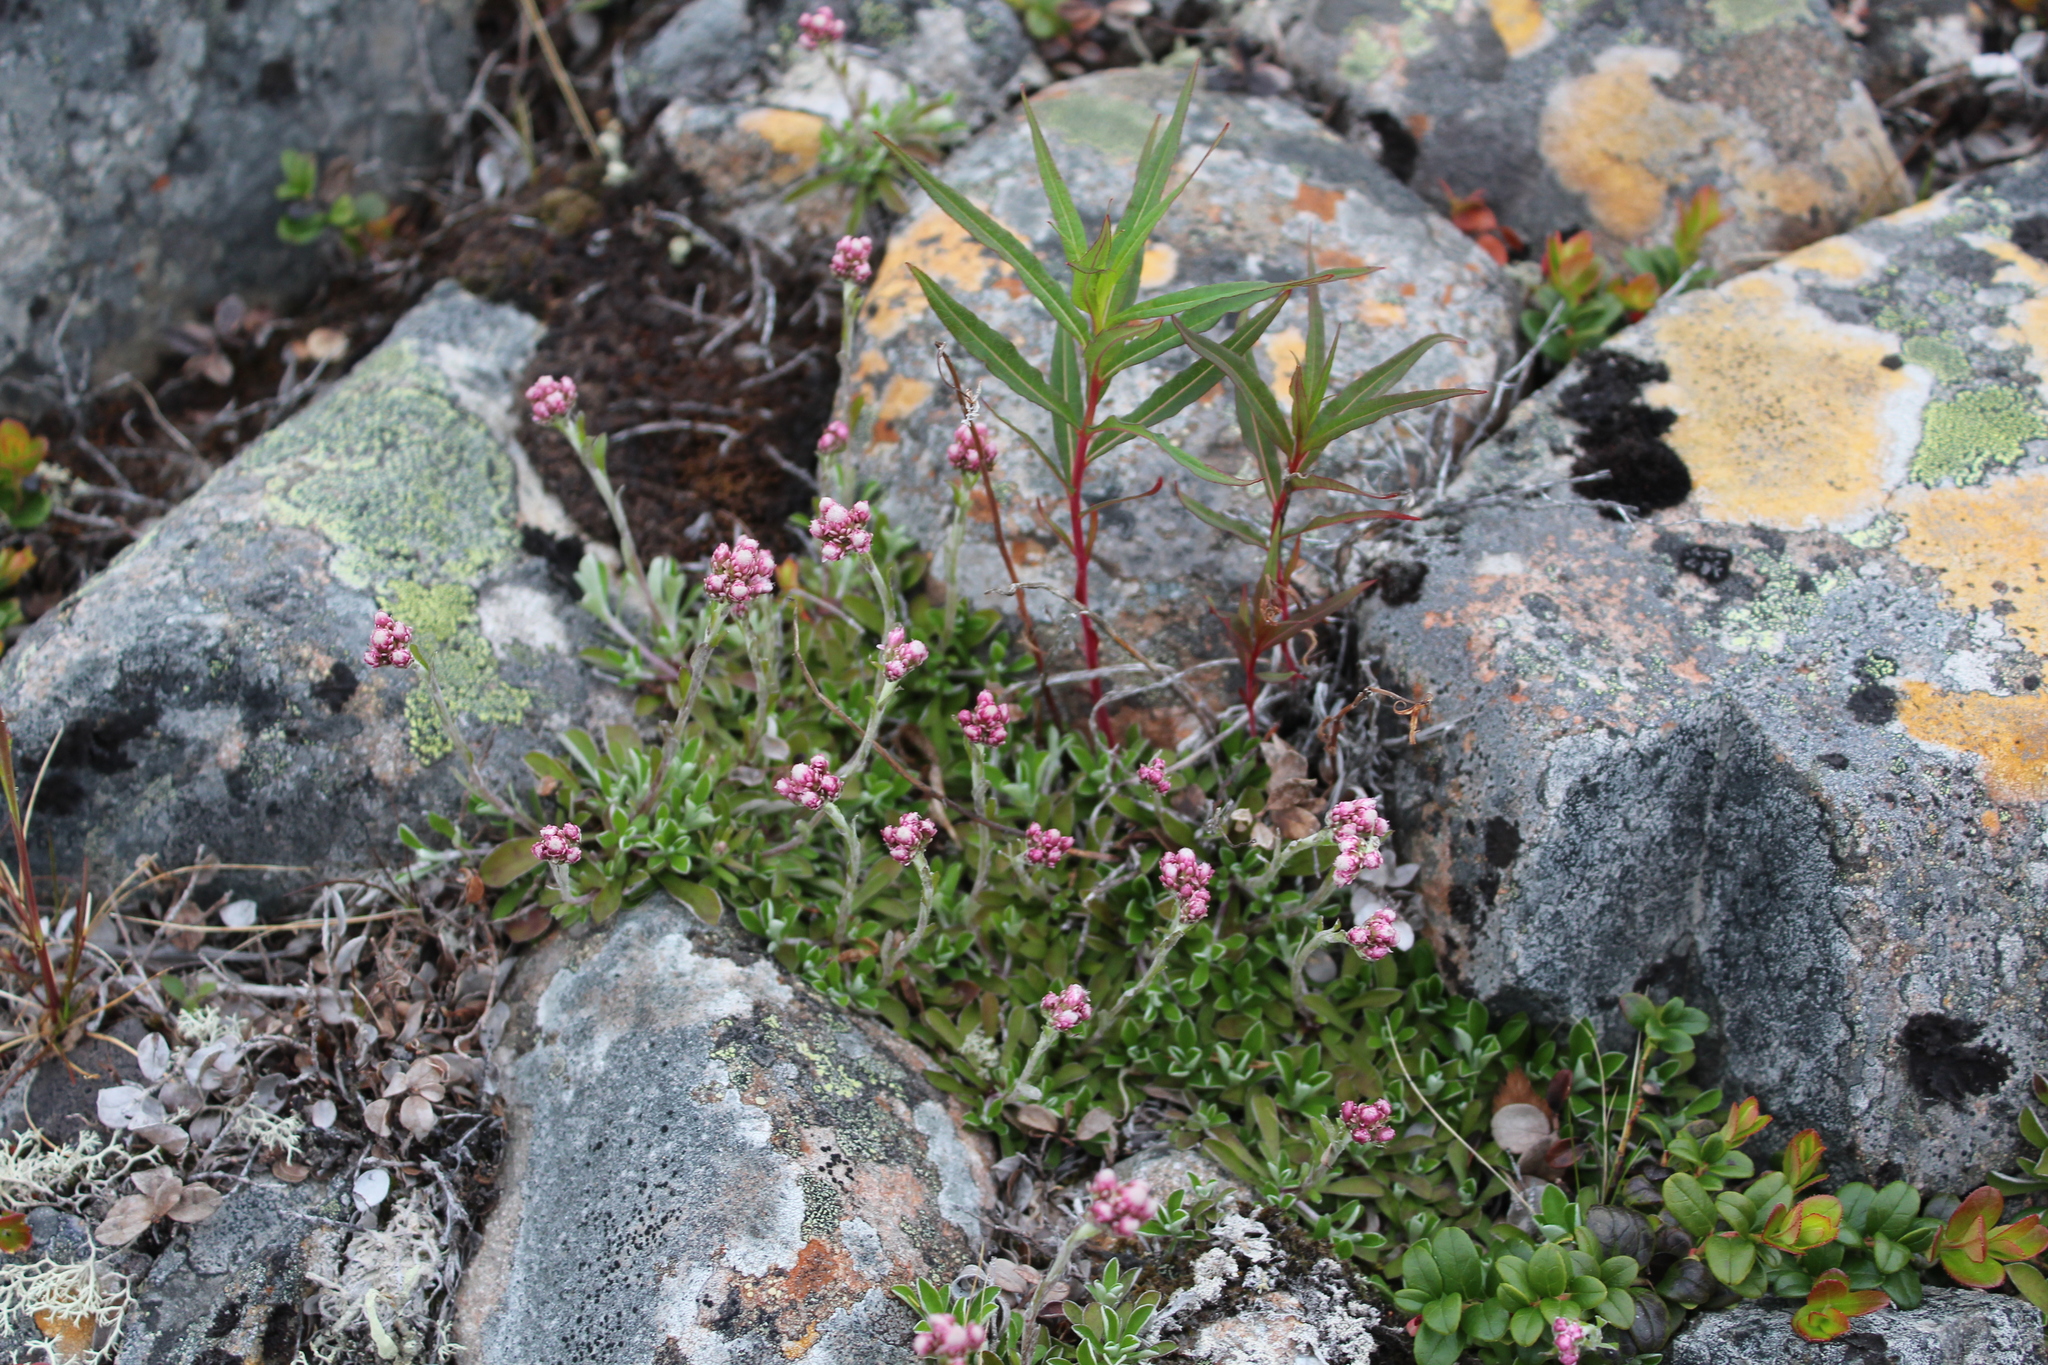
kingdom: Plantae
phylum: Tracheophyta
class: Magnoliopsida
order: Asterales
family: Asteraceae
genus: Antennaria
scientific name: Antennaria dioica
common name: Mountain everlasting
